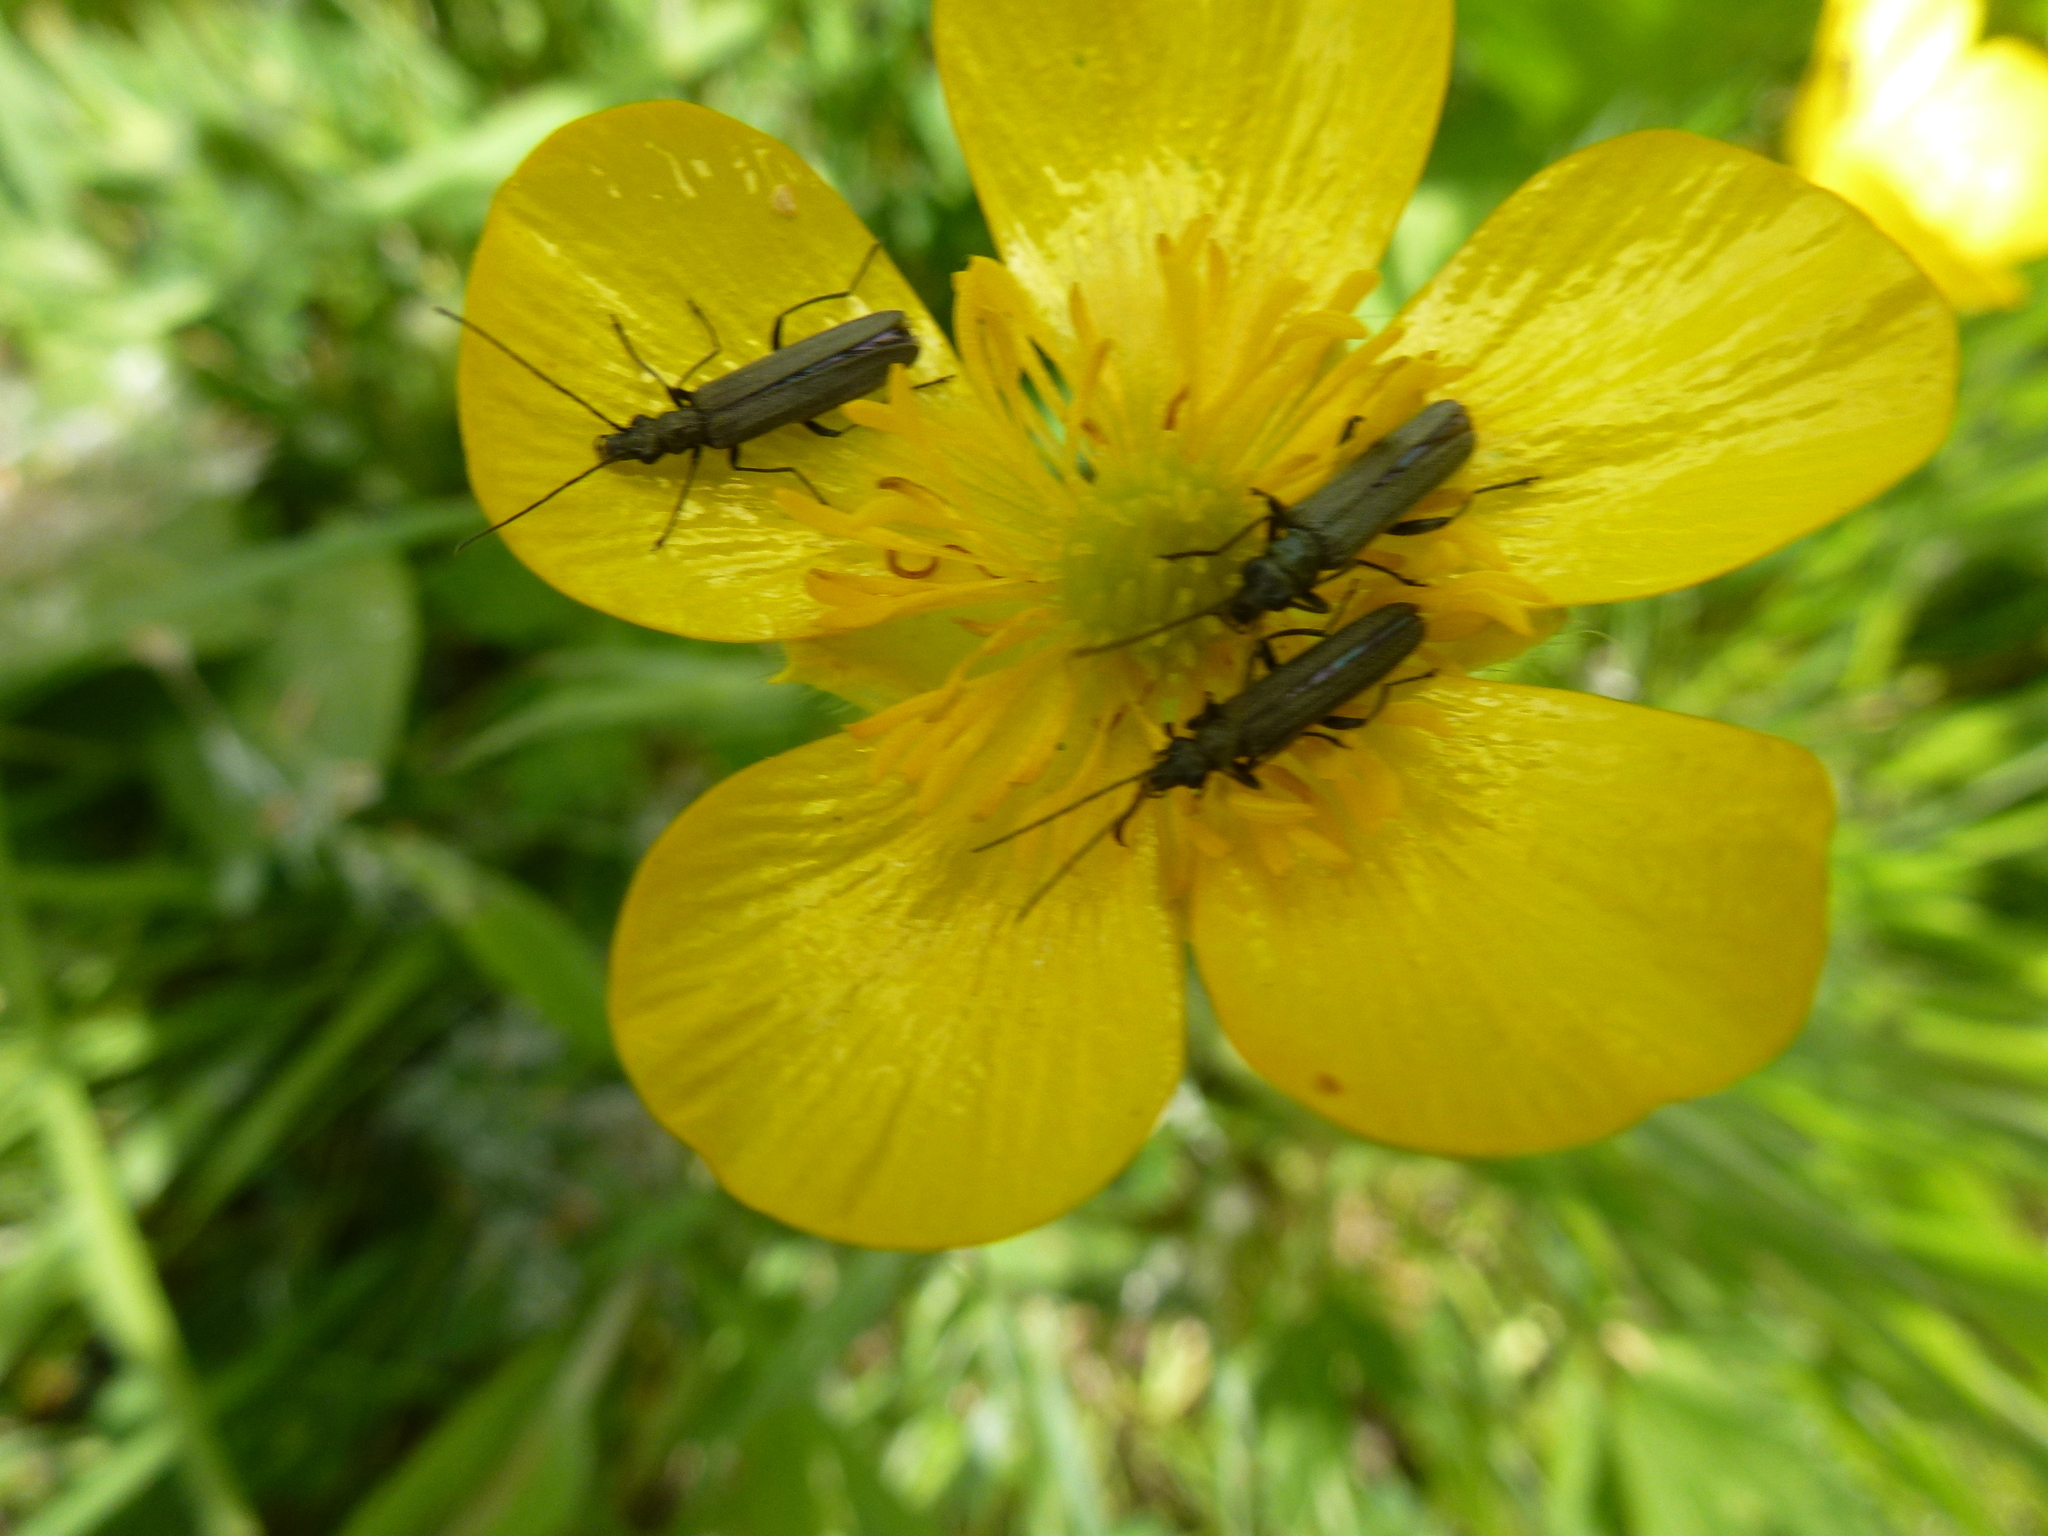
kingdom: Animalia
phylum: Arthropoda
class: Insecta
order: Coleoptera
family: Oedemeridae
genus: Oedemera
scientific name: Oedemera lurida
